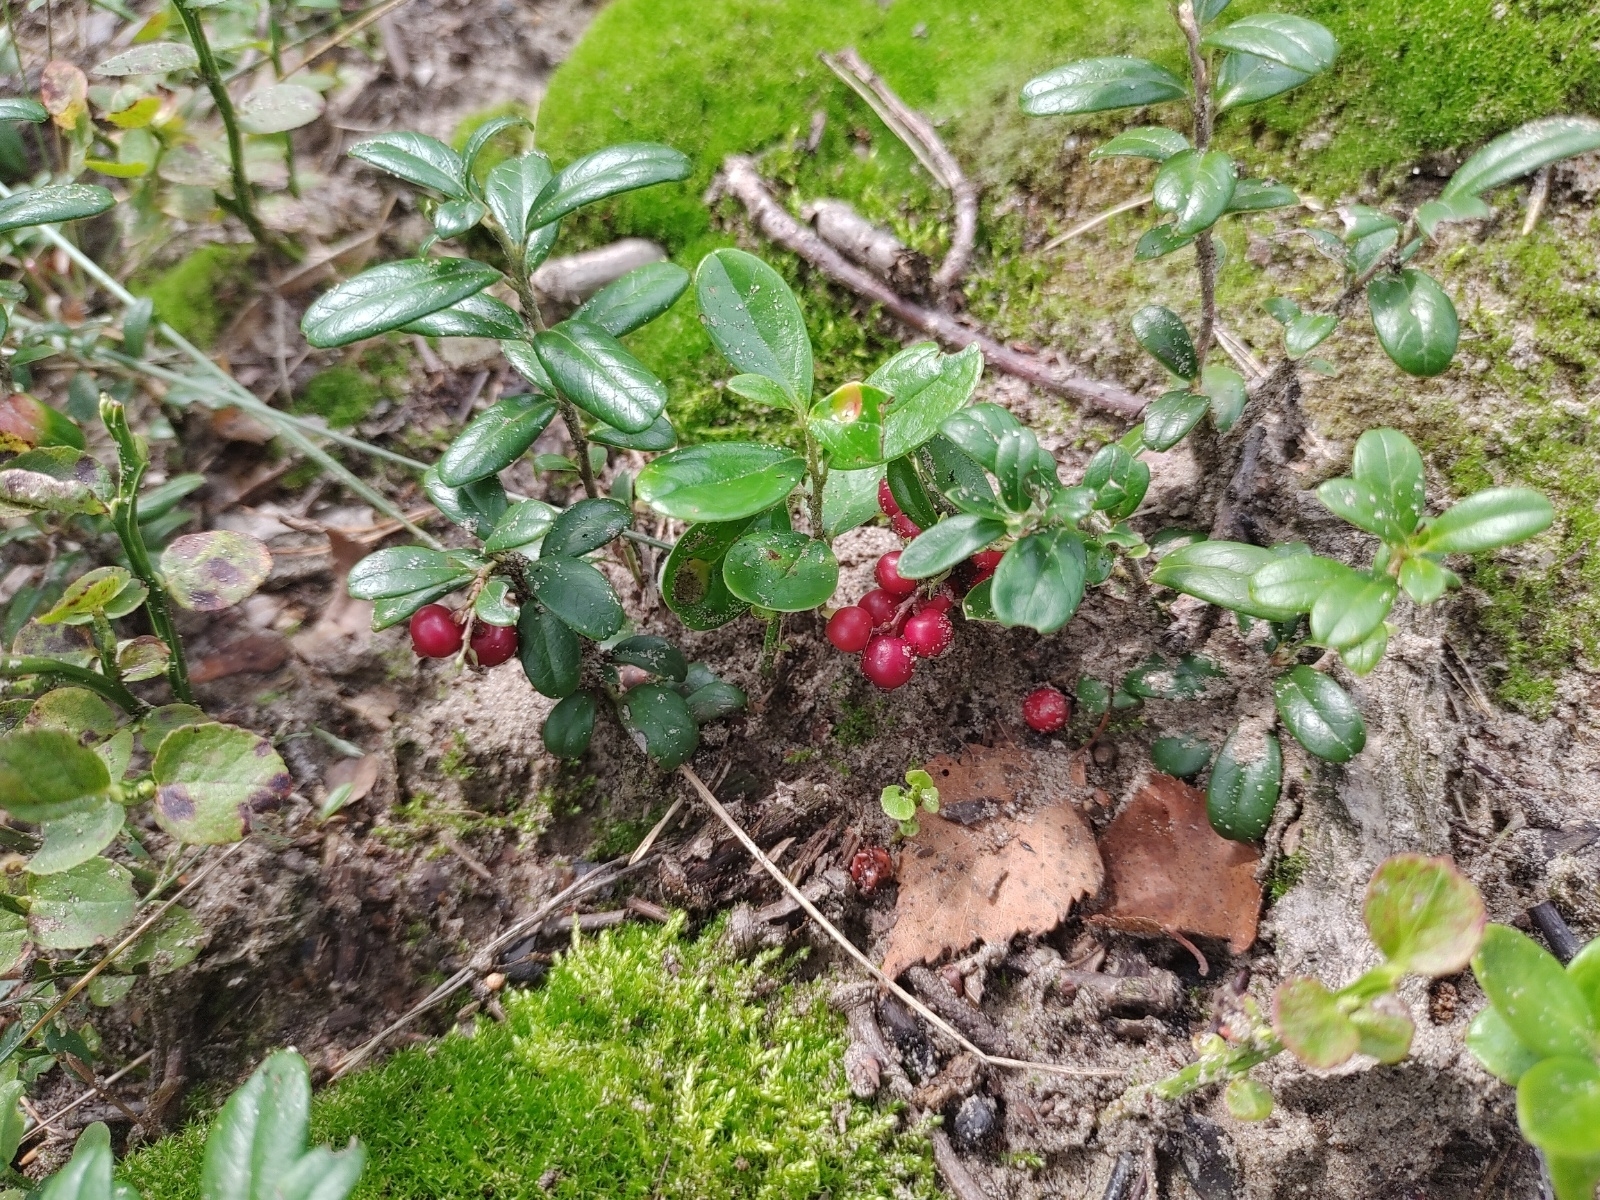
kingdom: Plantae
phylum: Tracheophyta
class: Magnoliopsida
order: Ericales
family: Ericaceae
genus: Vaccinium
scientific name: Vaccinium vitis-idaea
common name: Cowberry
